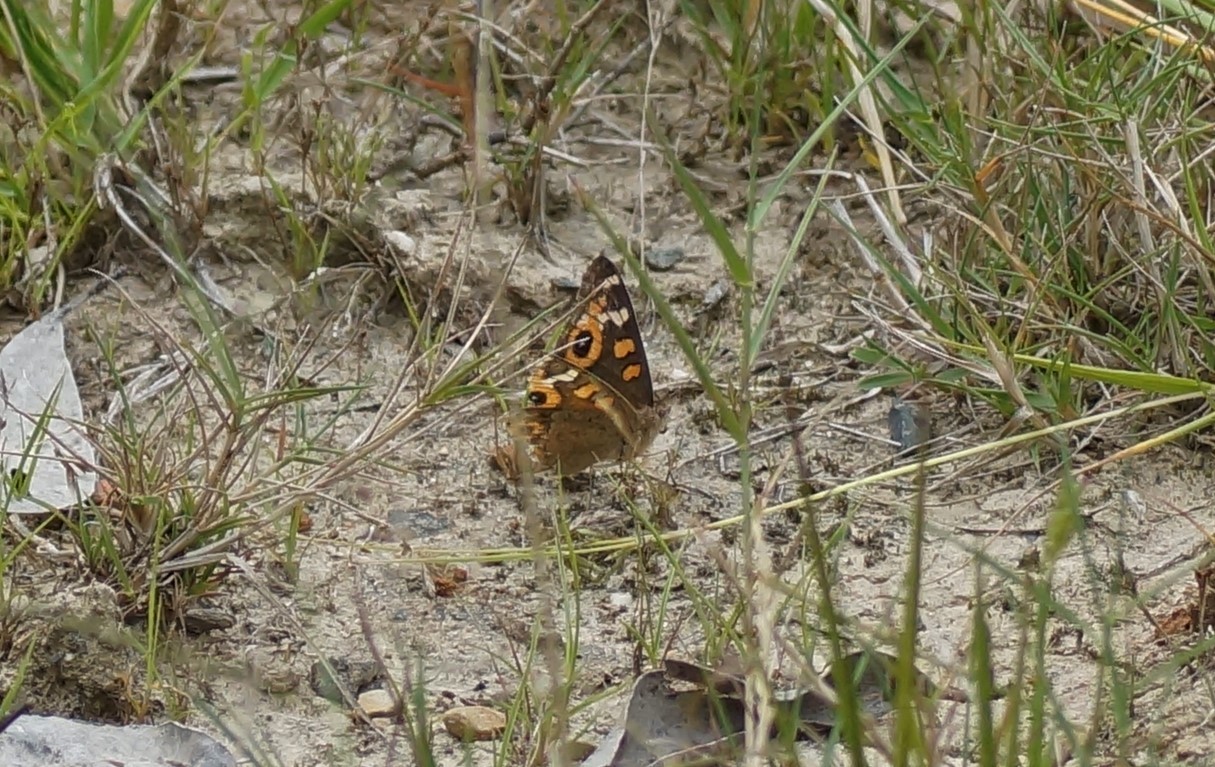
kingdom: Animalia
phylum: Arthropoda
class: Insecta
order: Lepidoptera
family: Nymphalidae
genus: Junonia
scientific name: Junonia villida
